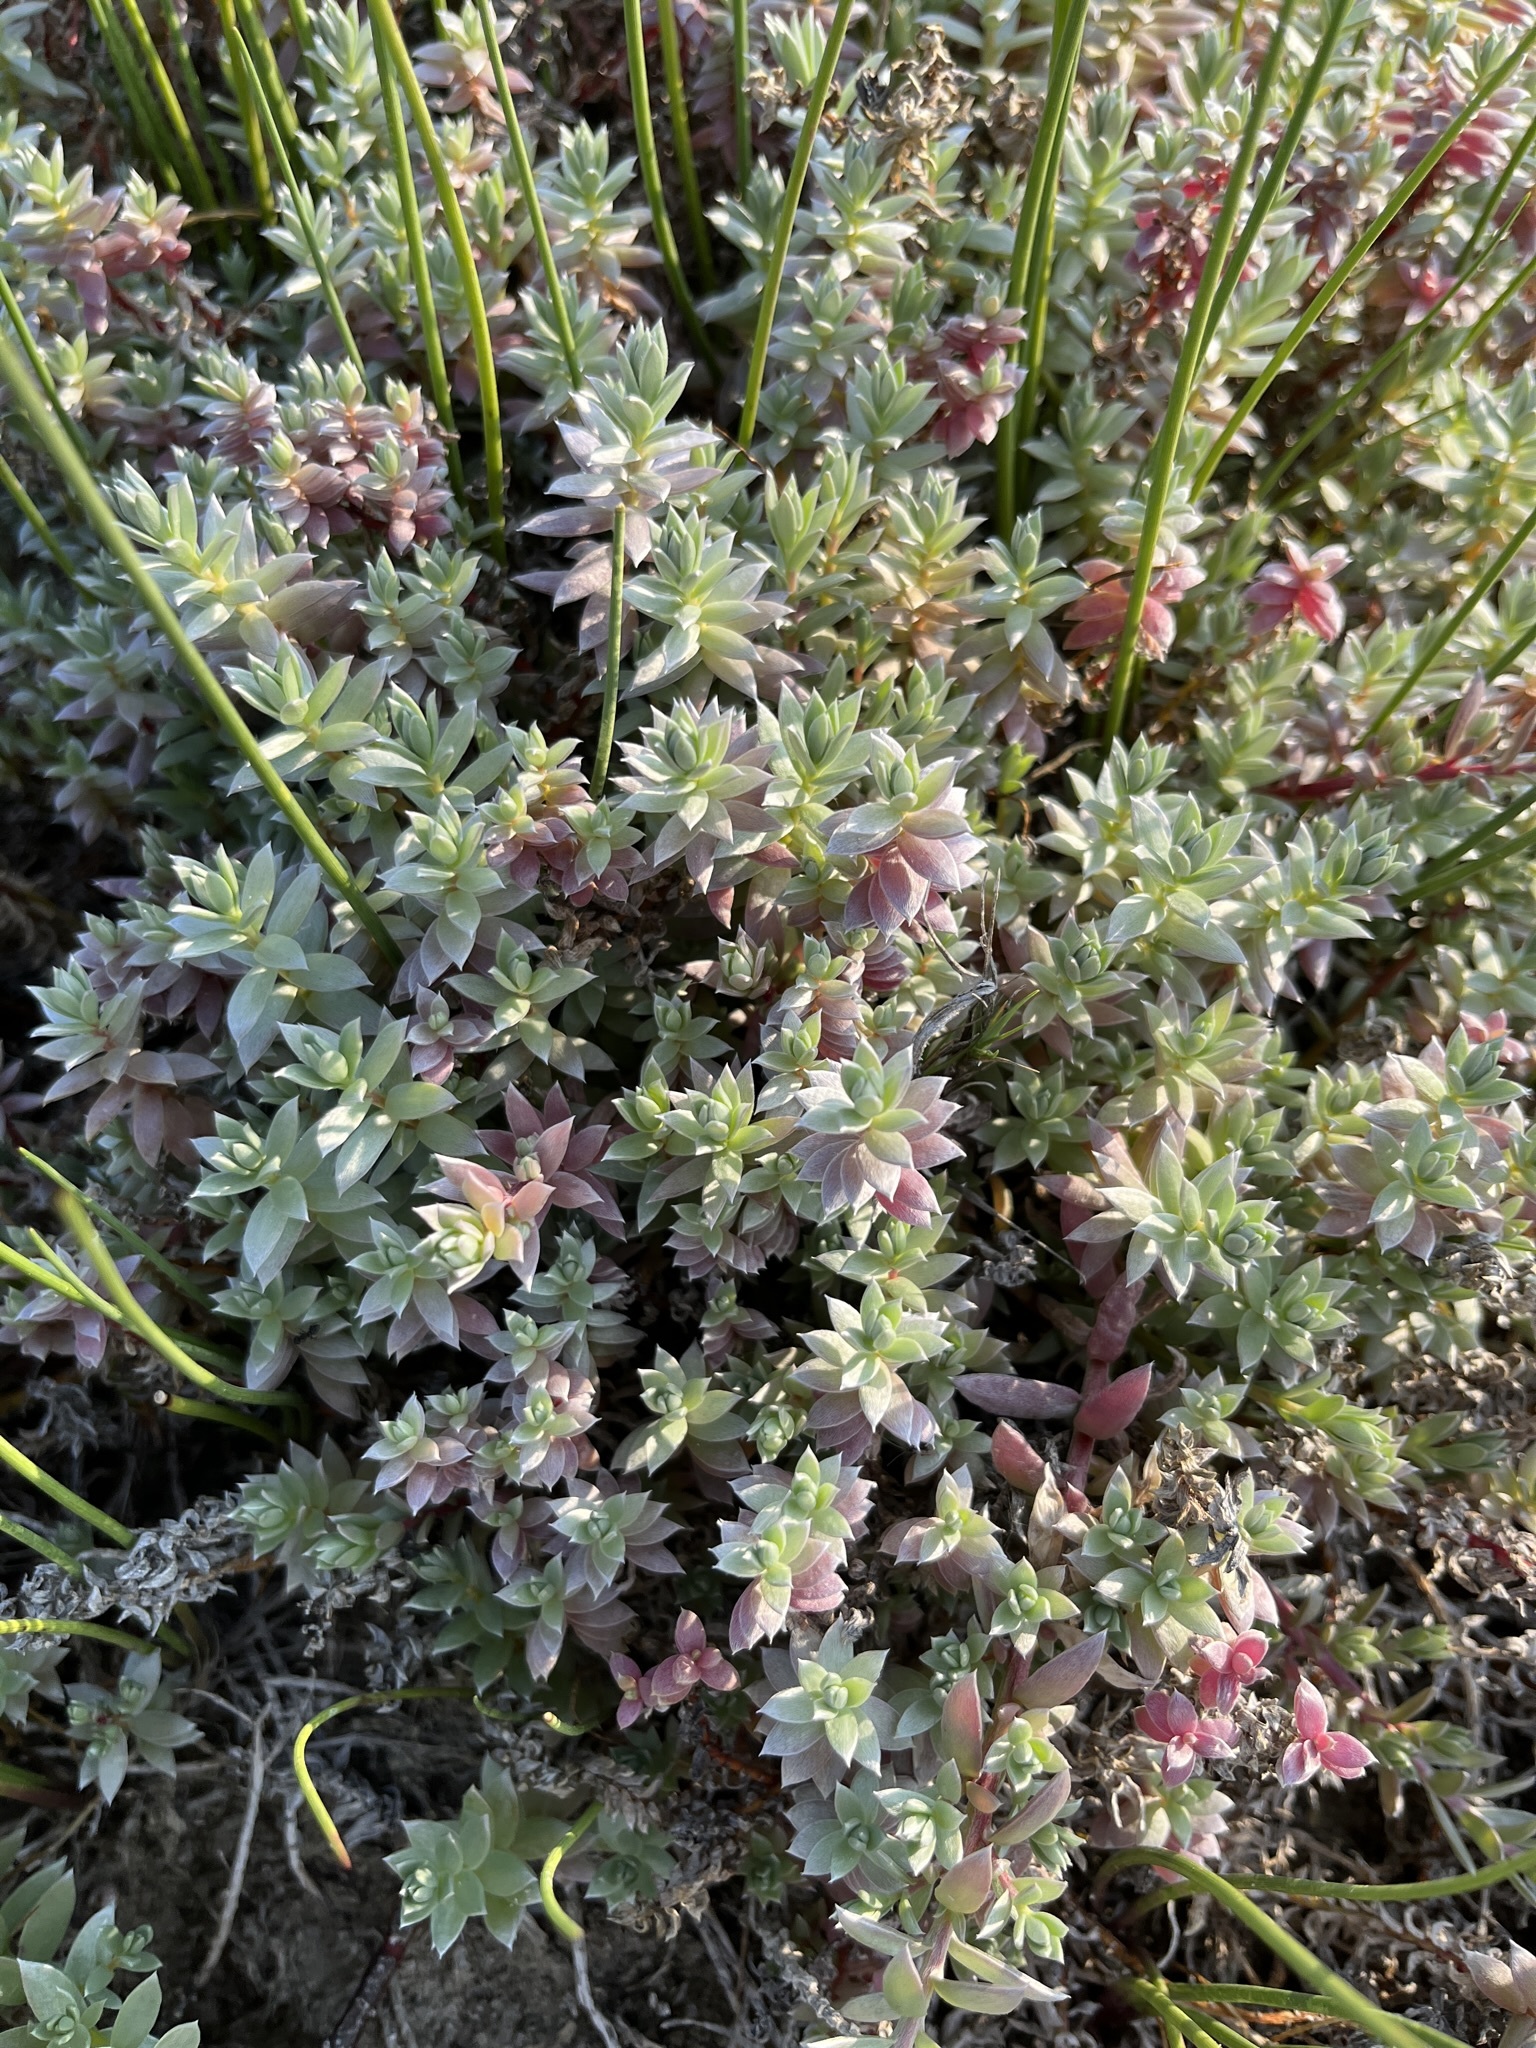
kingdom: Plantae
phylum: Tracheophyta
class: Magnoliopsida
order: Caryophyllales
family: Amaranthaceae
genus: Chenolea
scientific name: Chenolea diffusa
